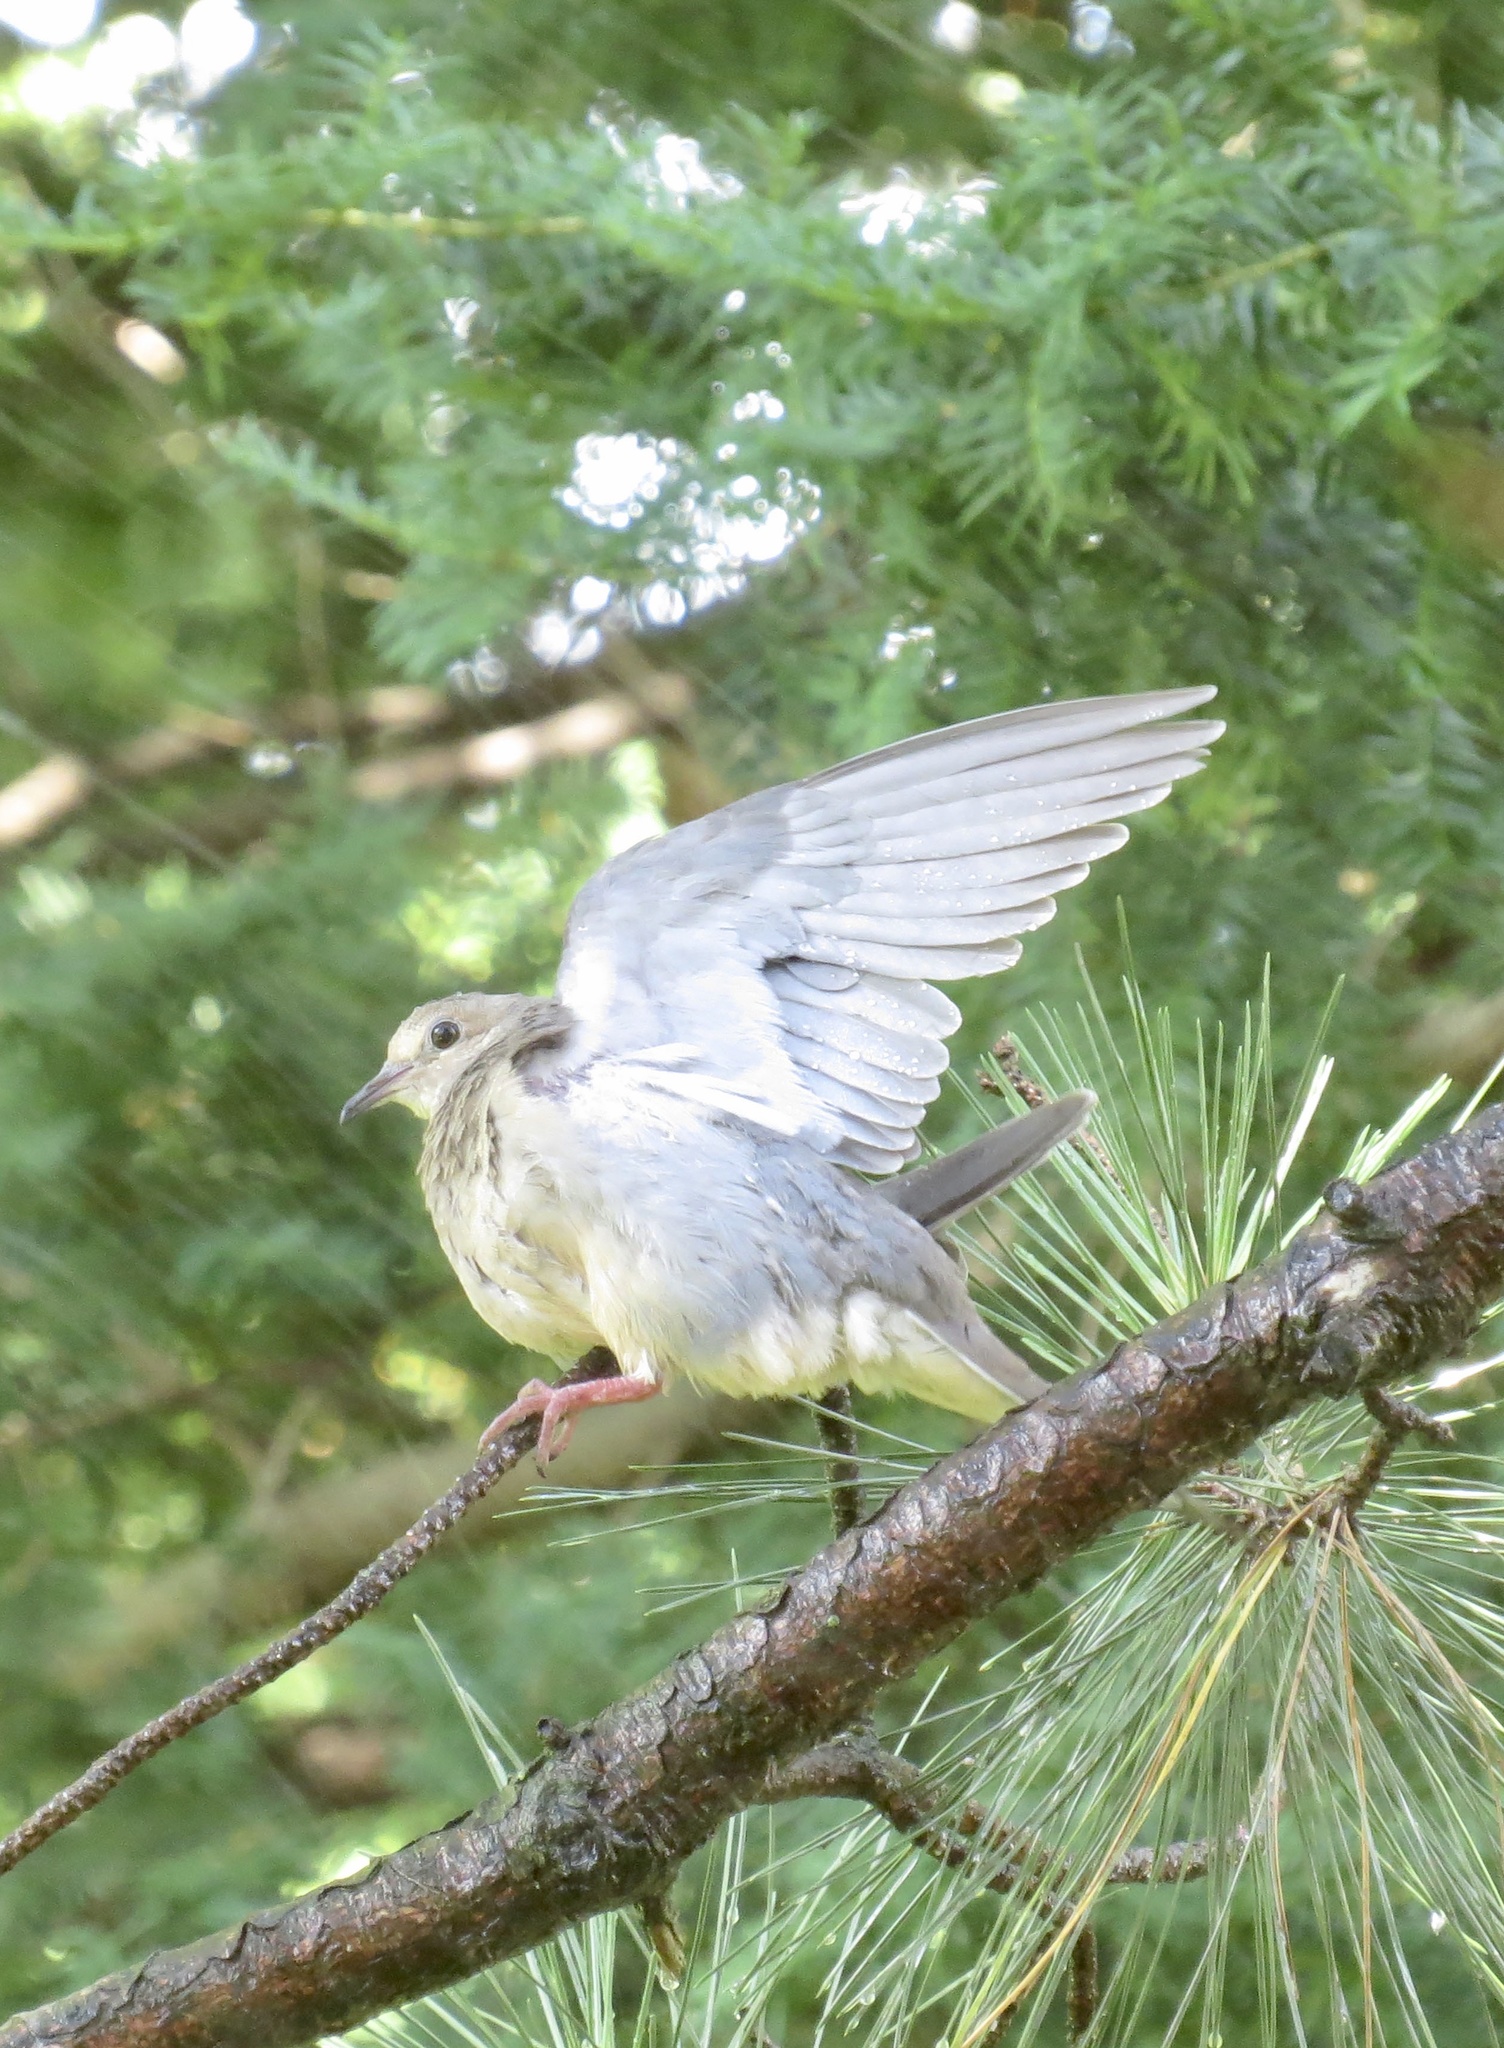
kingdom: Animalia
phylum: Chordata
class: Aves
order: Columbiformes
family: Columbidae
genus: Zenaida
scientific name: Zenaida macroura
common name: Mourning dove
